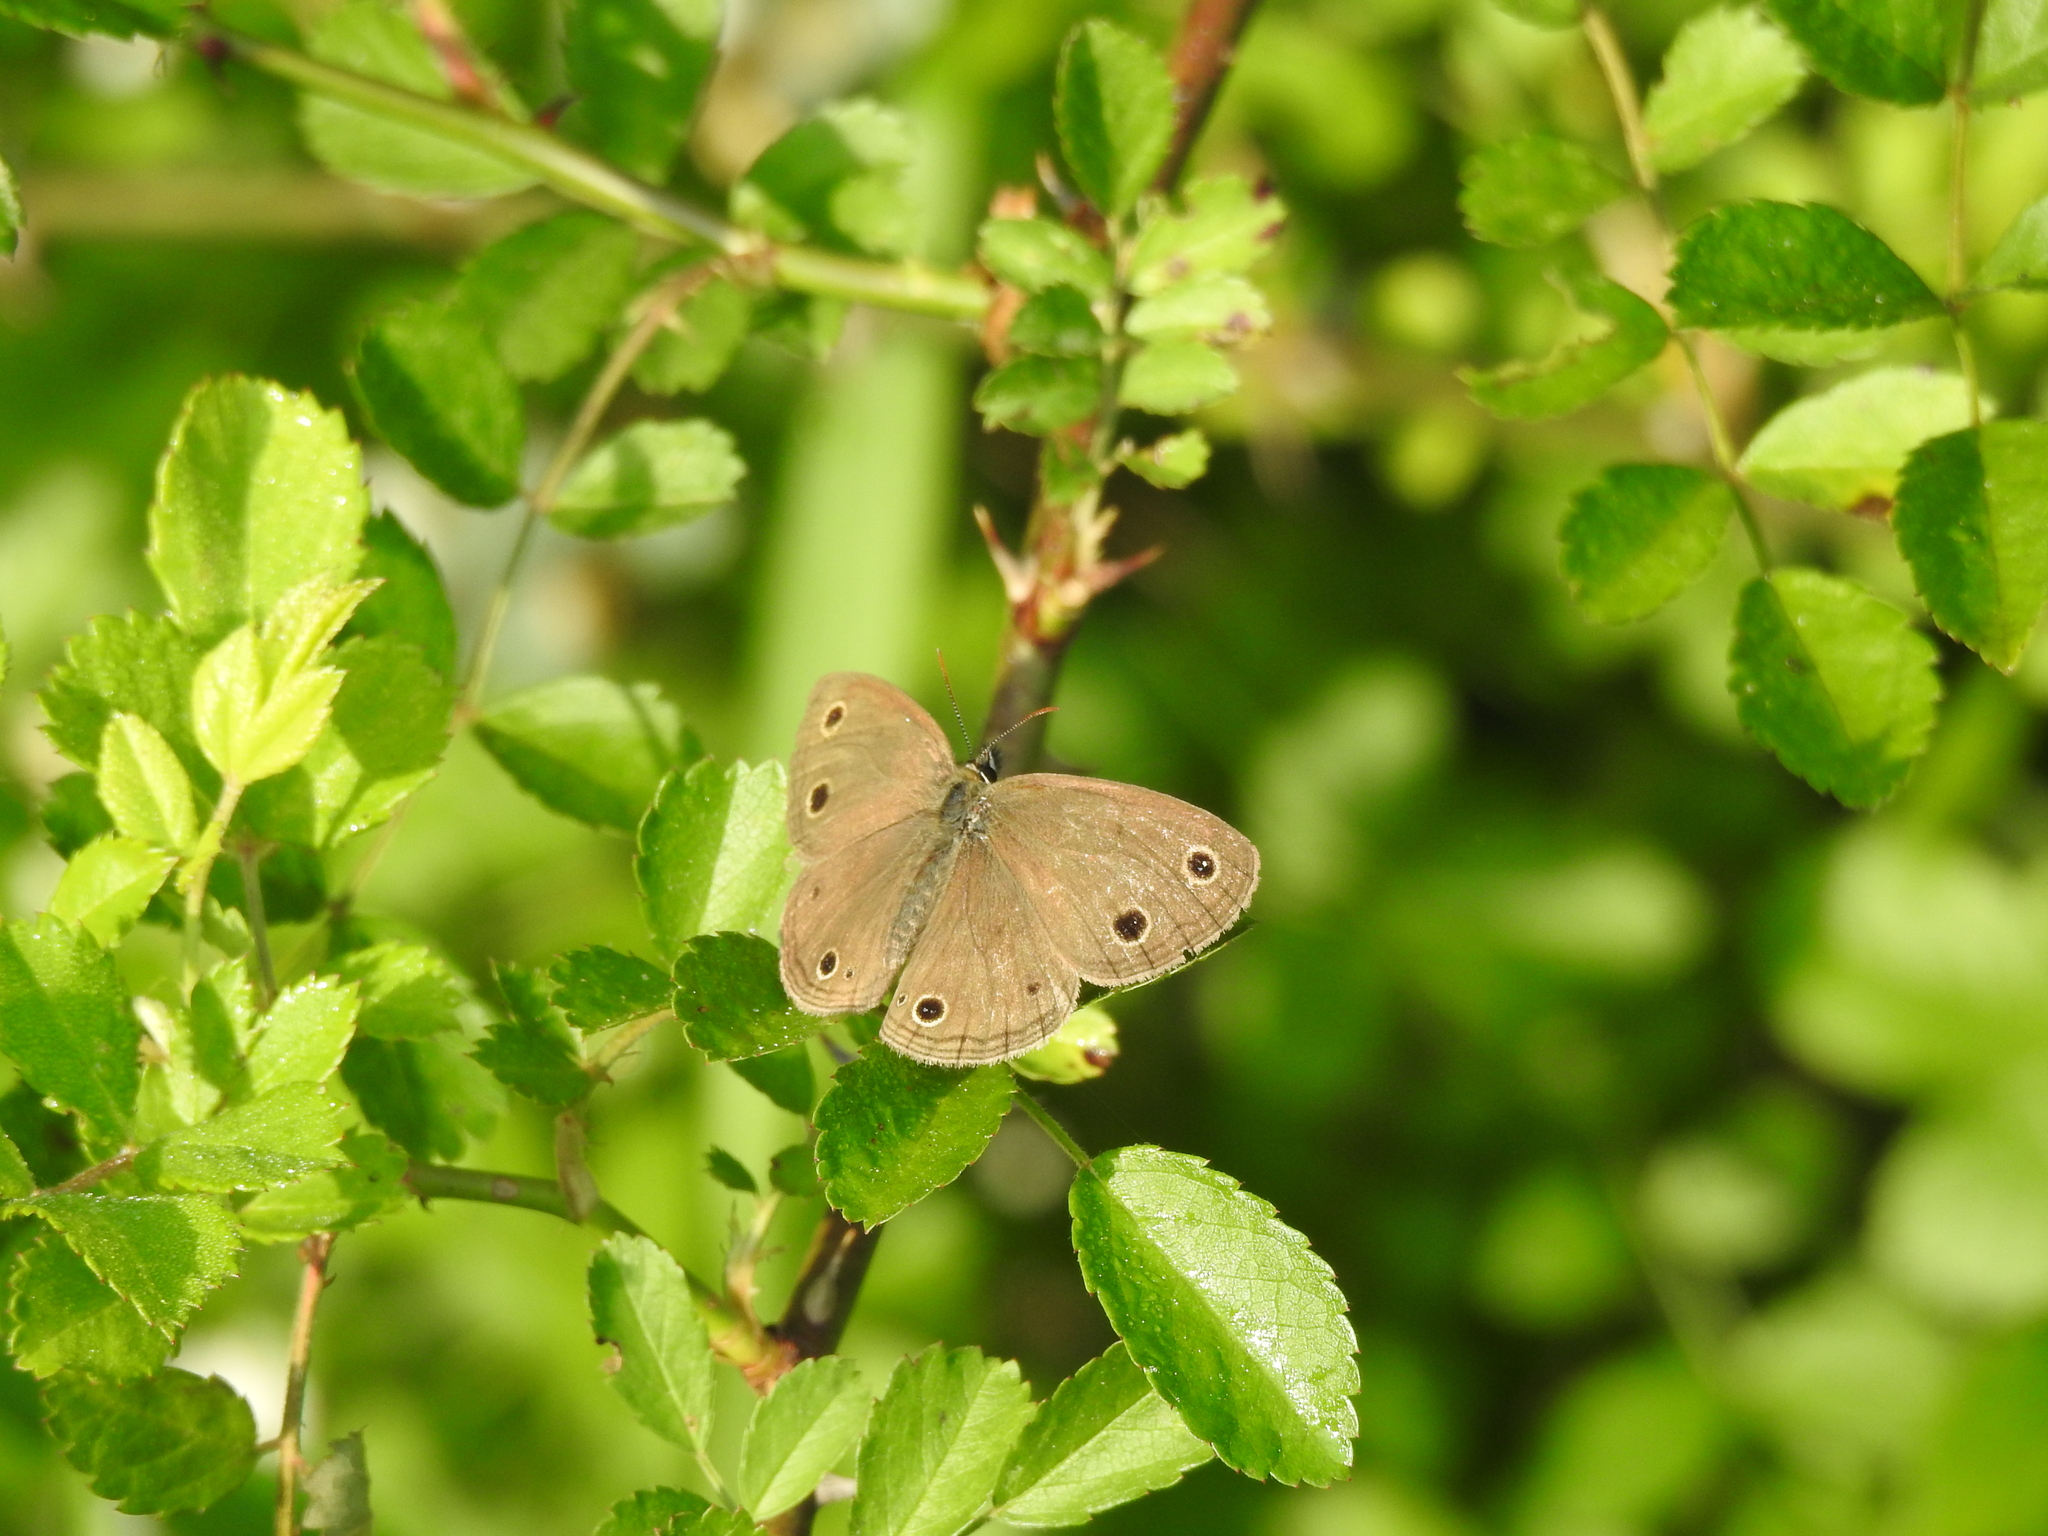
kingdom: Animalia
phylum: Arthropoda
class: Insecta
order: Lepidoptera
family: Nymphalidae
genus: Euptychia
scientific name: Euptychia cymela
